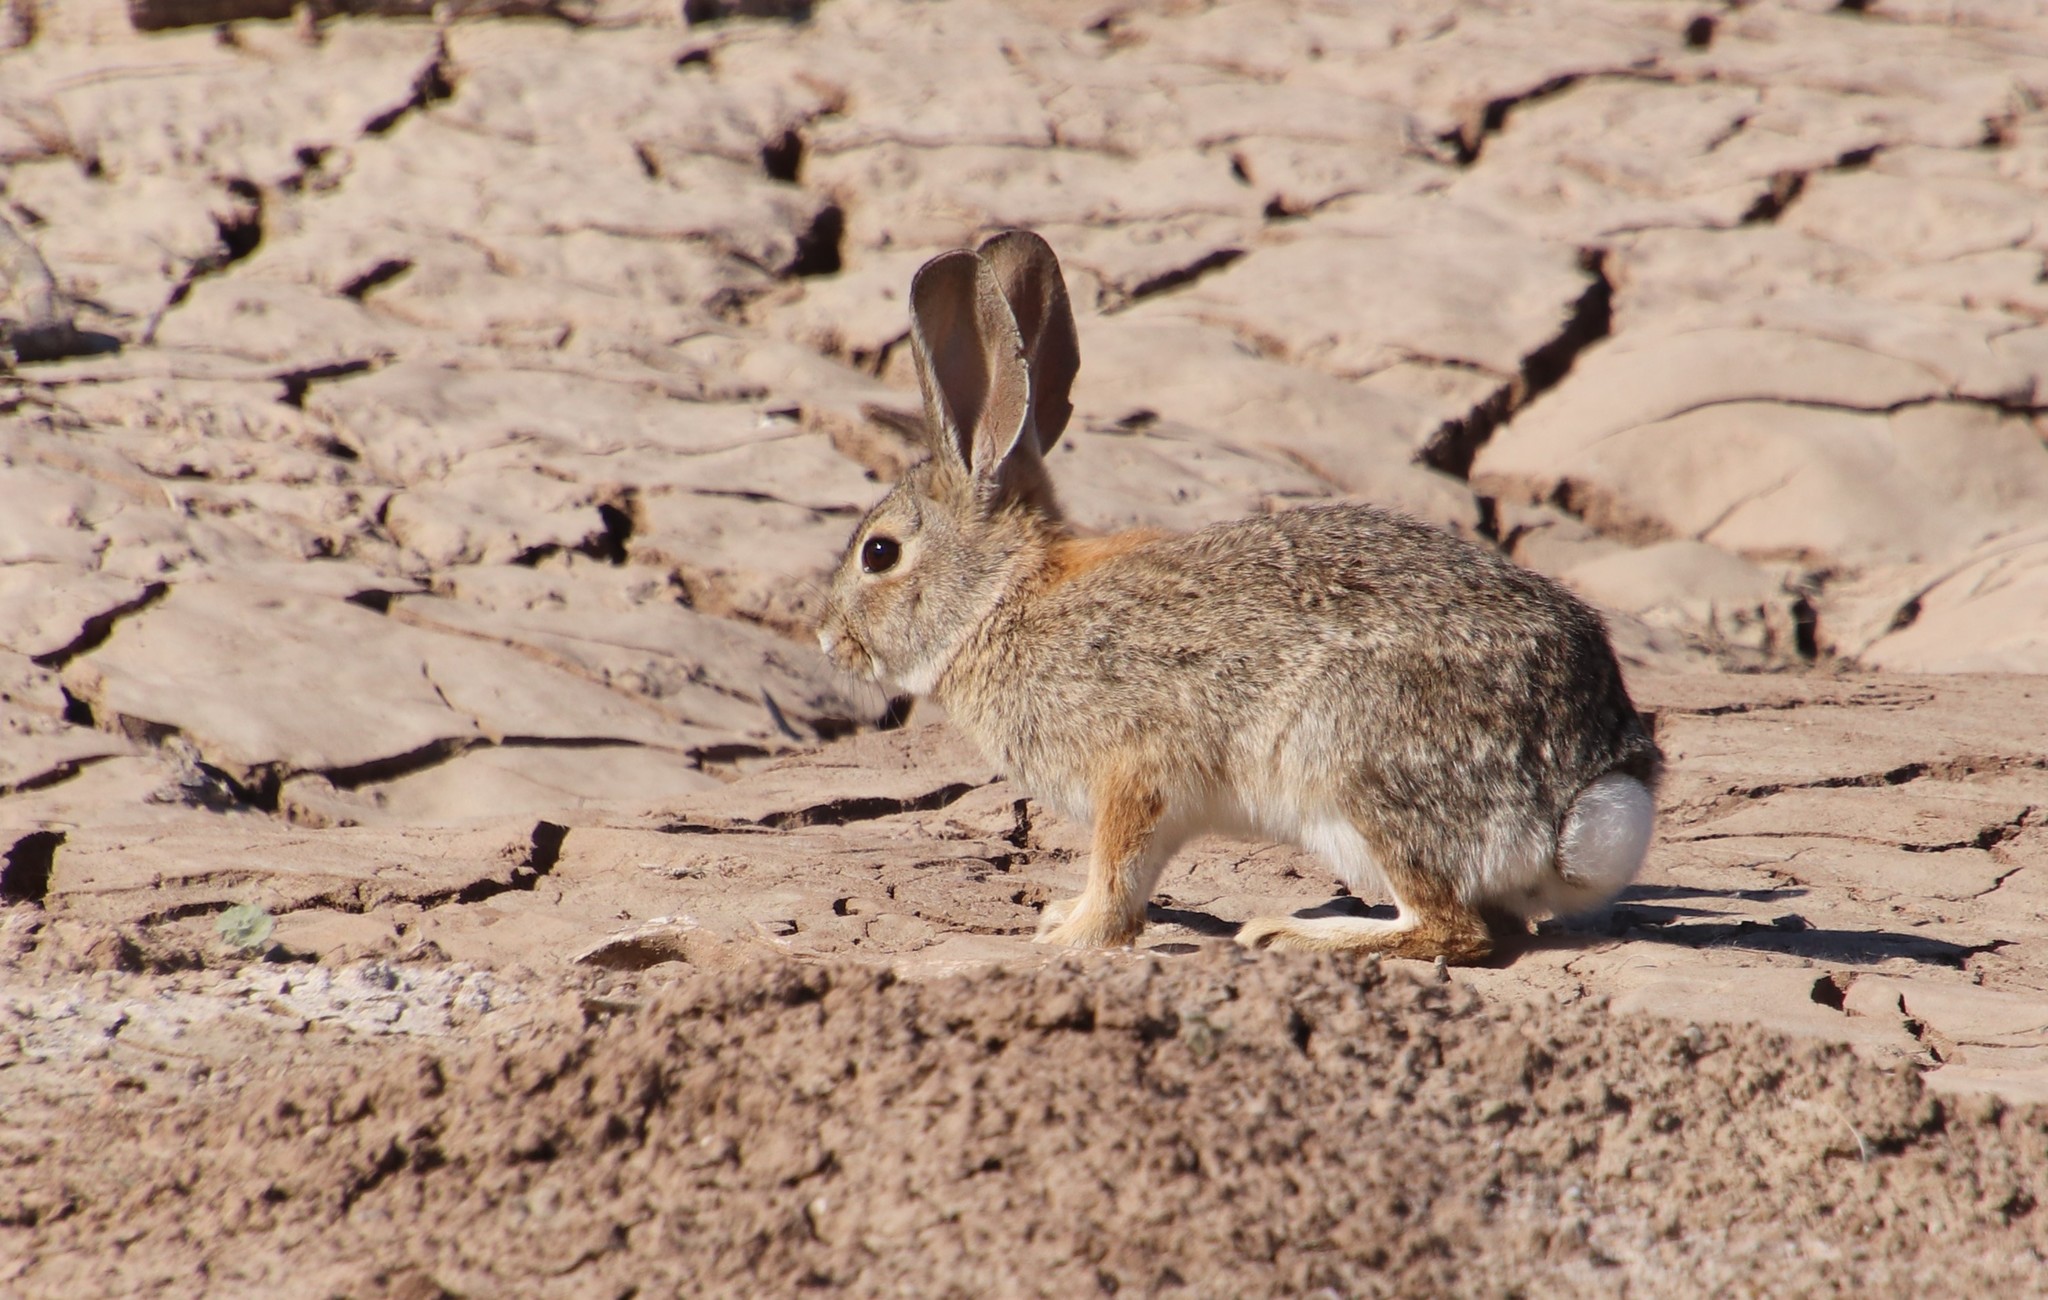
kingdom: Animalia
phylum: Chordata
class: Mammalia
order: Lagomorpha
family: Leporidae
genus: Sylvilagus
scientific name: Sylvilagus audubonii
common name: Desert cottontail
